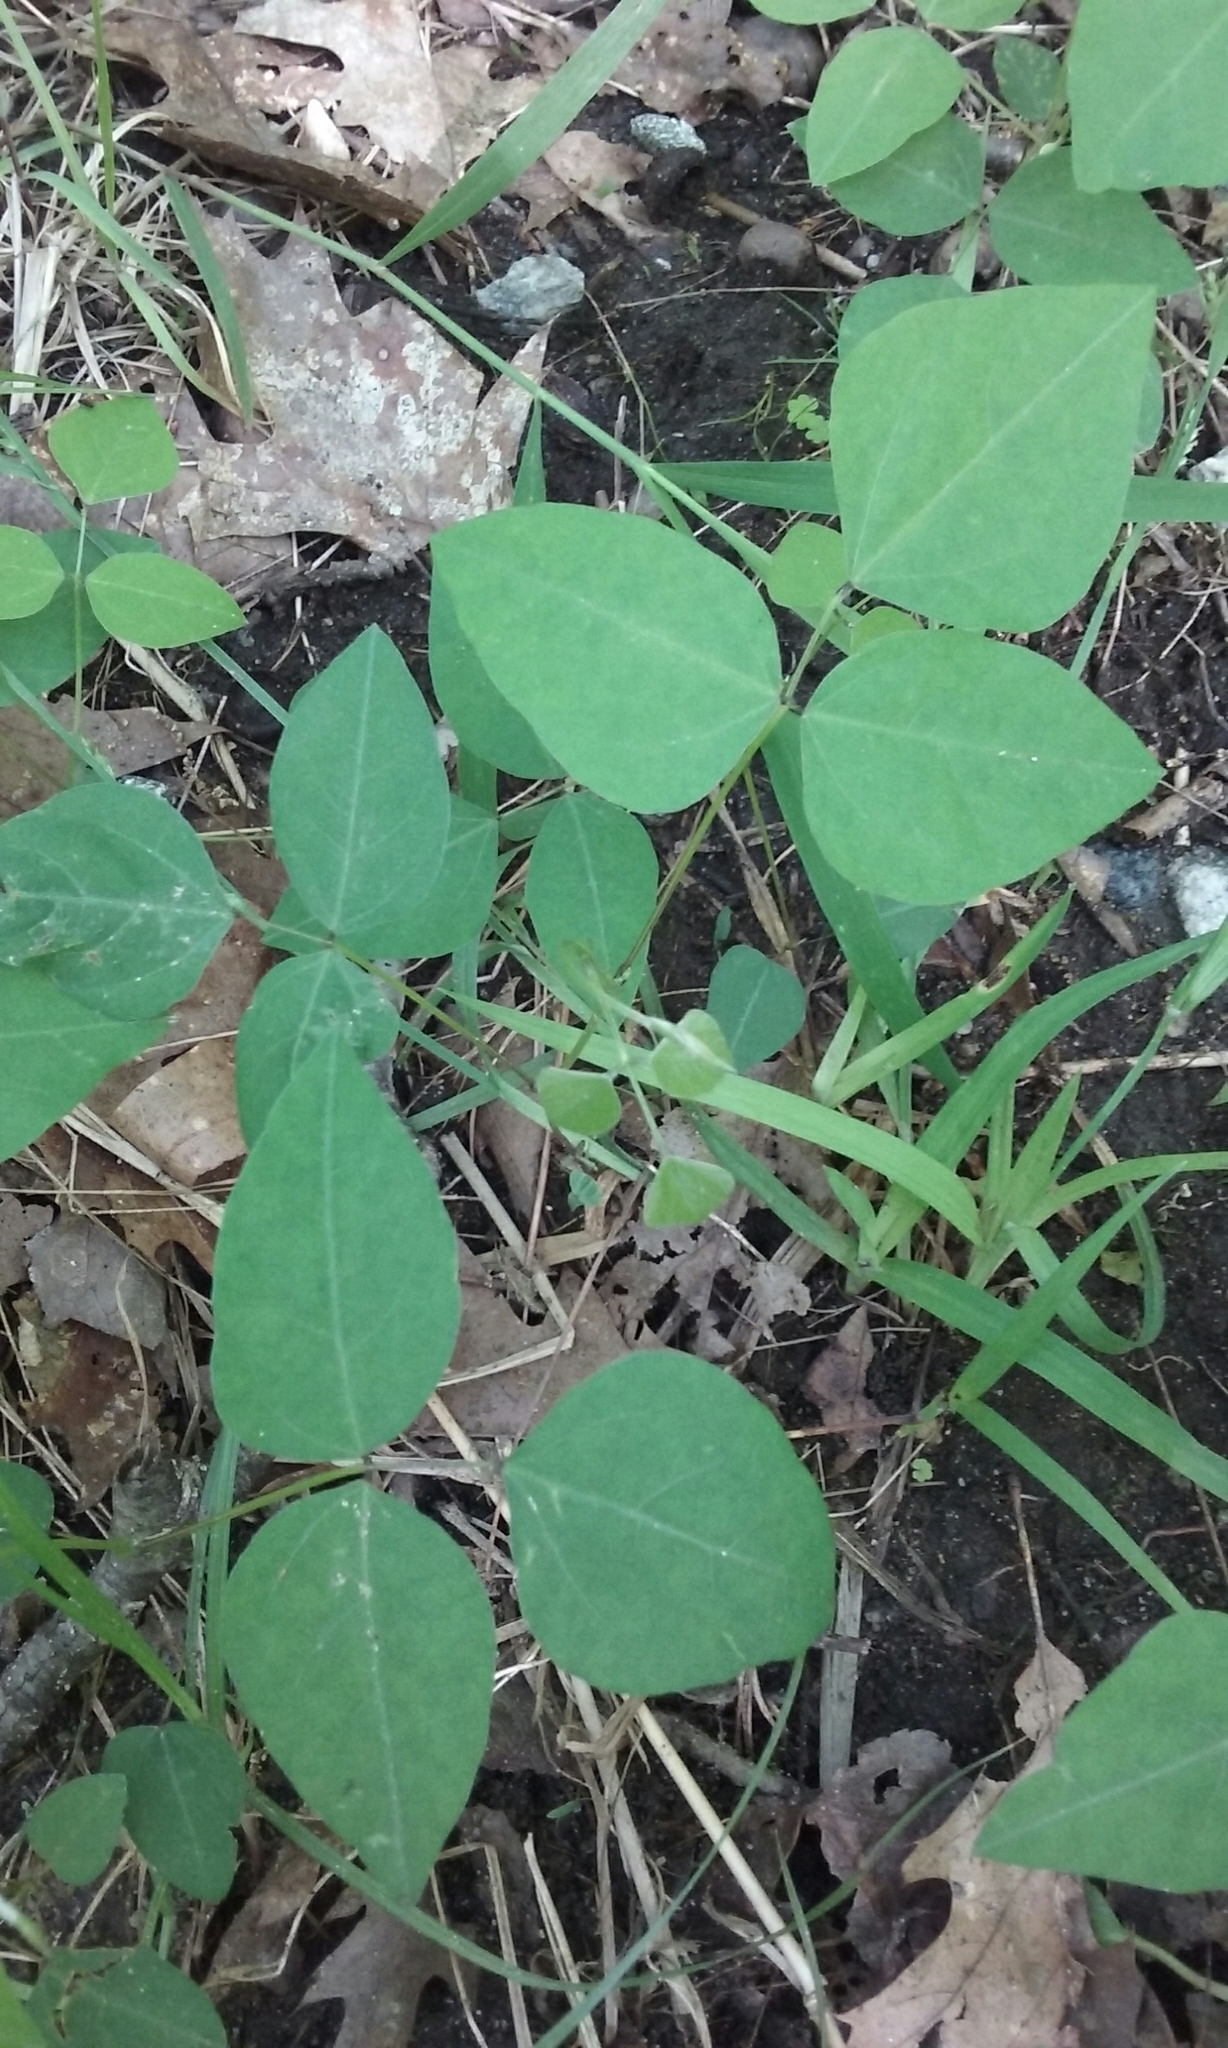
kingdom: Plantae
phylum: Tracheophyta
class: Magnoliopsida
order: Fabales
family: Fabaceae
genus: Amphicarpaea
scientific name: Amphicarpaea bracteata
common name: American hog peanut
